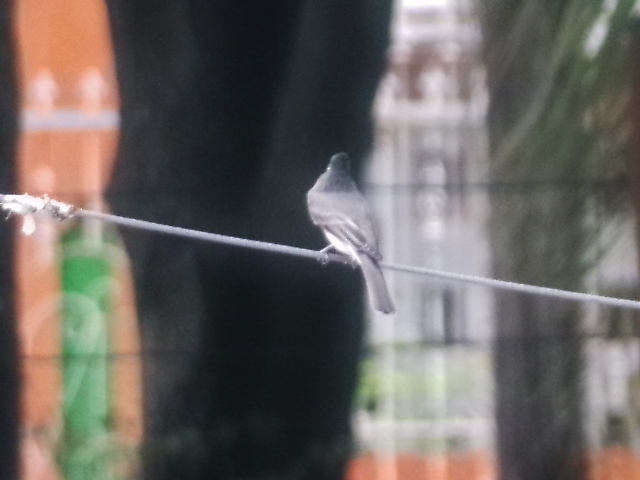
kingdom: Animalia
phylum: Chordata
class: Aves
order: Passeriformes
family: Tyrannidae
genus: Sayornis
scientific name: Sayornis nigricans
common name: Black phoebe
